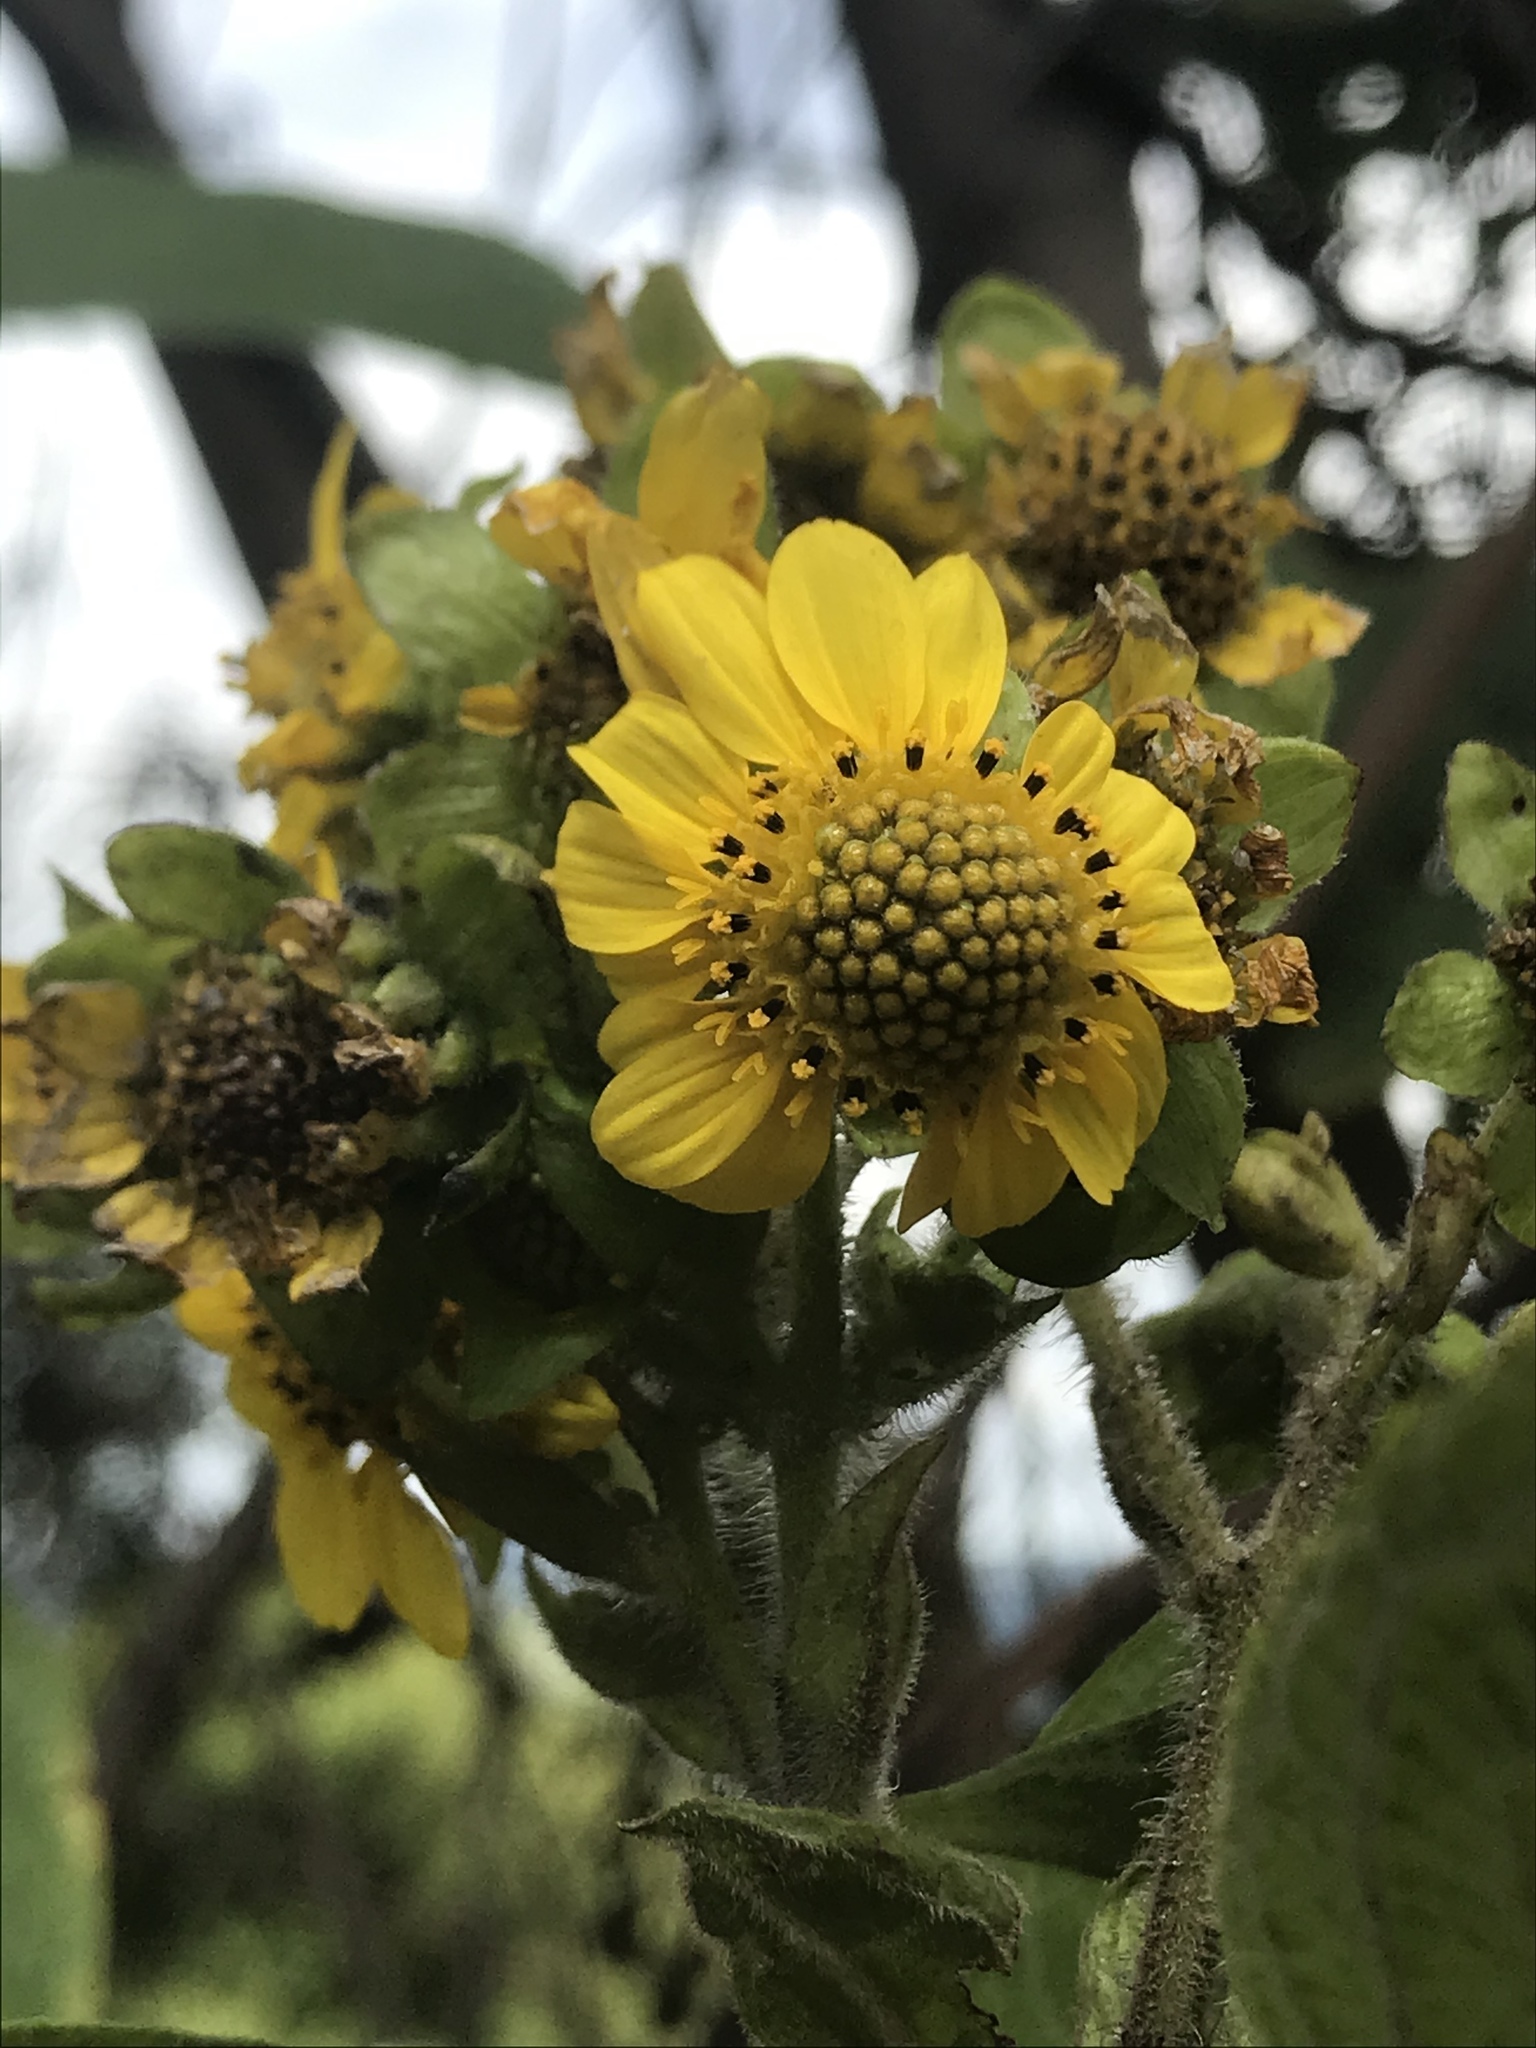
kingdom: Plantae
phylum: Tracheophyta
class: Magnoliopsida
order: Asterales
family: Asteraceae
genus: Smallanthus
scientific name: Smallanthus pyramidalis
